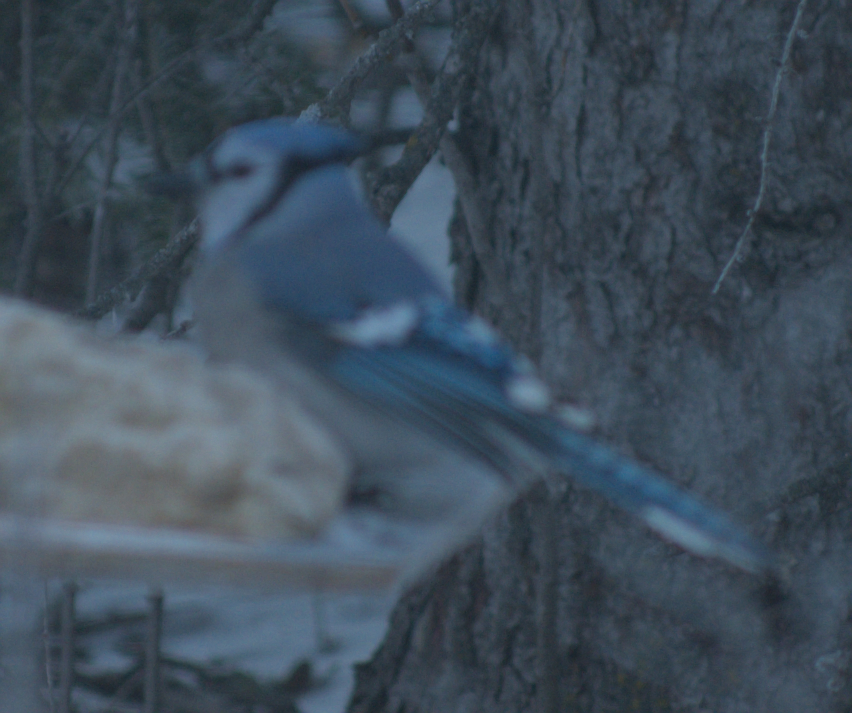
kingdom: Animalia
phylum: Chordata
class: Aves
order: Passeriformes
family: Corvidae
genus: Cyanocitta
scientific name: Cyanocitta cristata
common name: Blue jay
